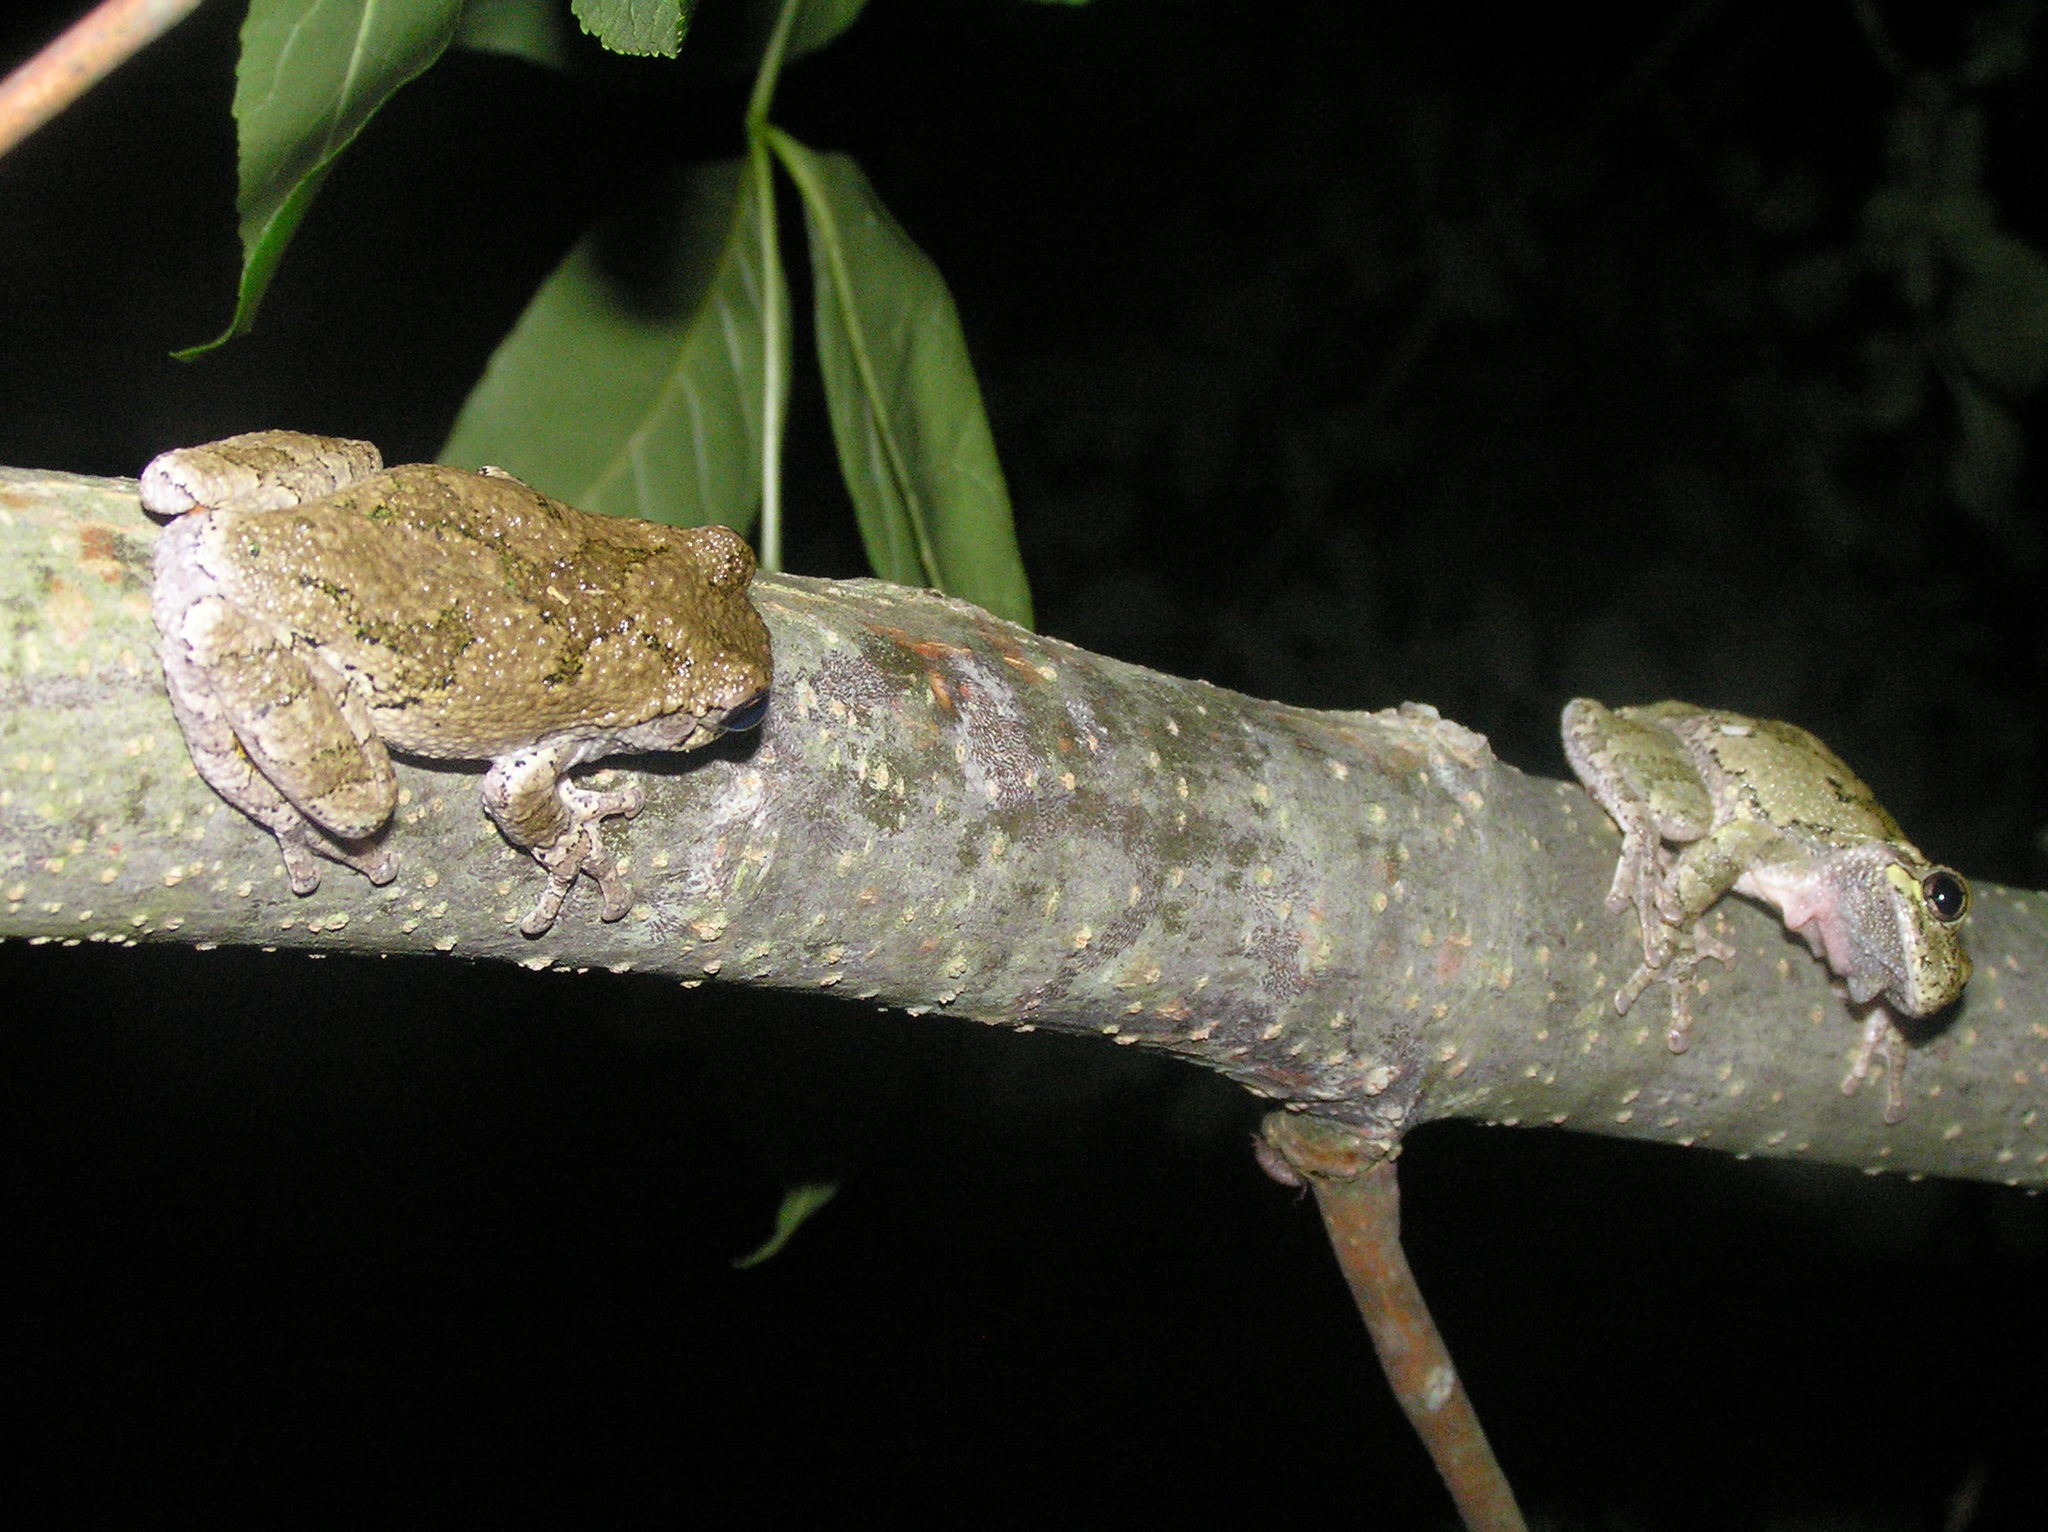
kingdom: Animalia
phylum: Chordata
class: Amphibia
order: Anura
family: Hylidae
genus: Dryophytes
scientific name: Dryophytes versicolor
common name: Gray treefrog
